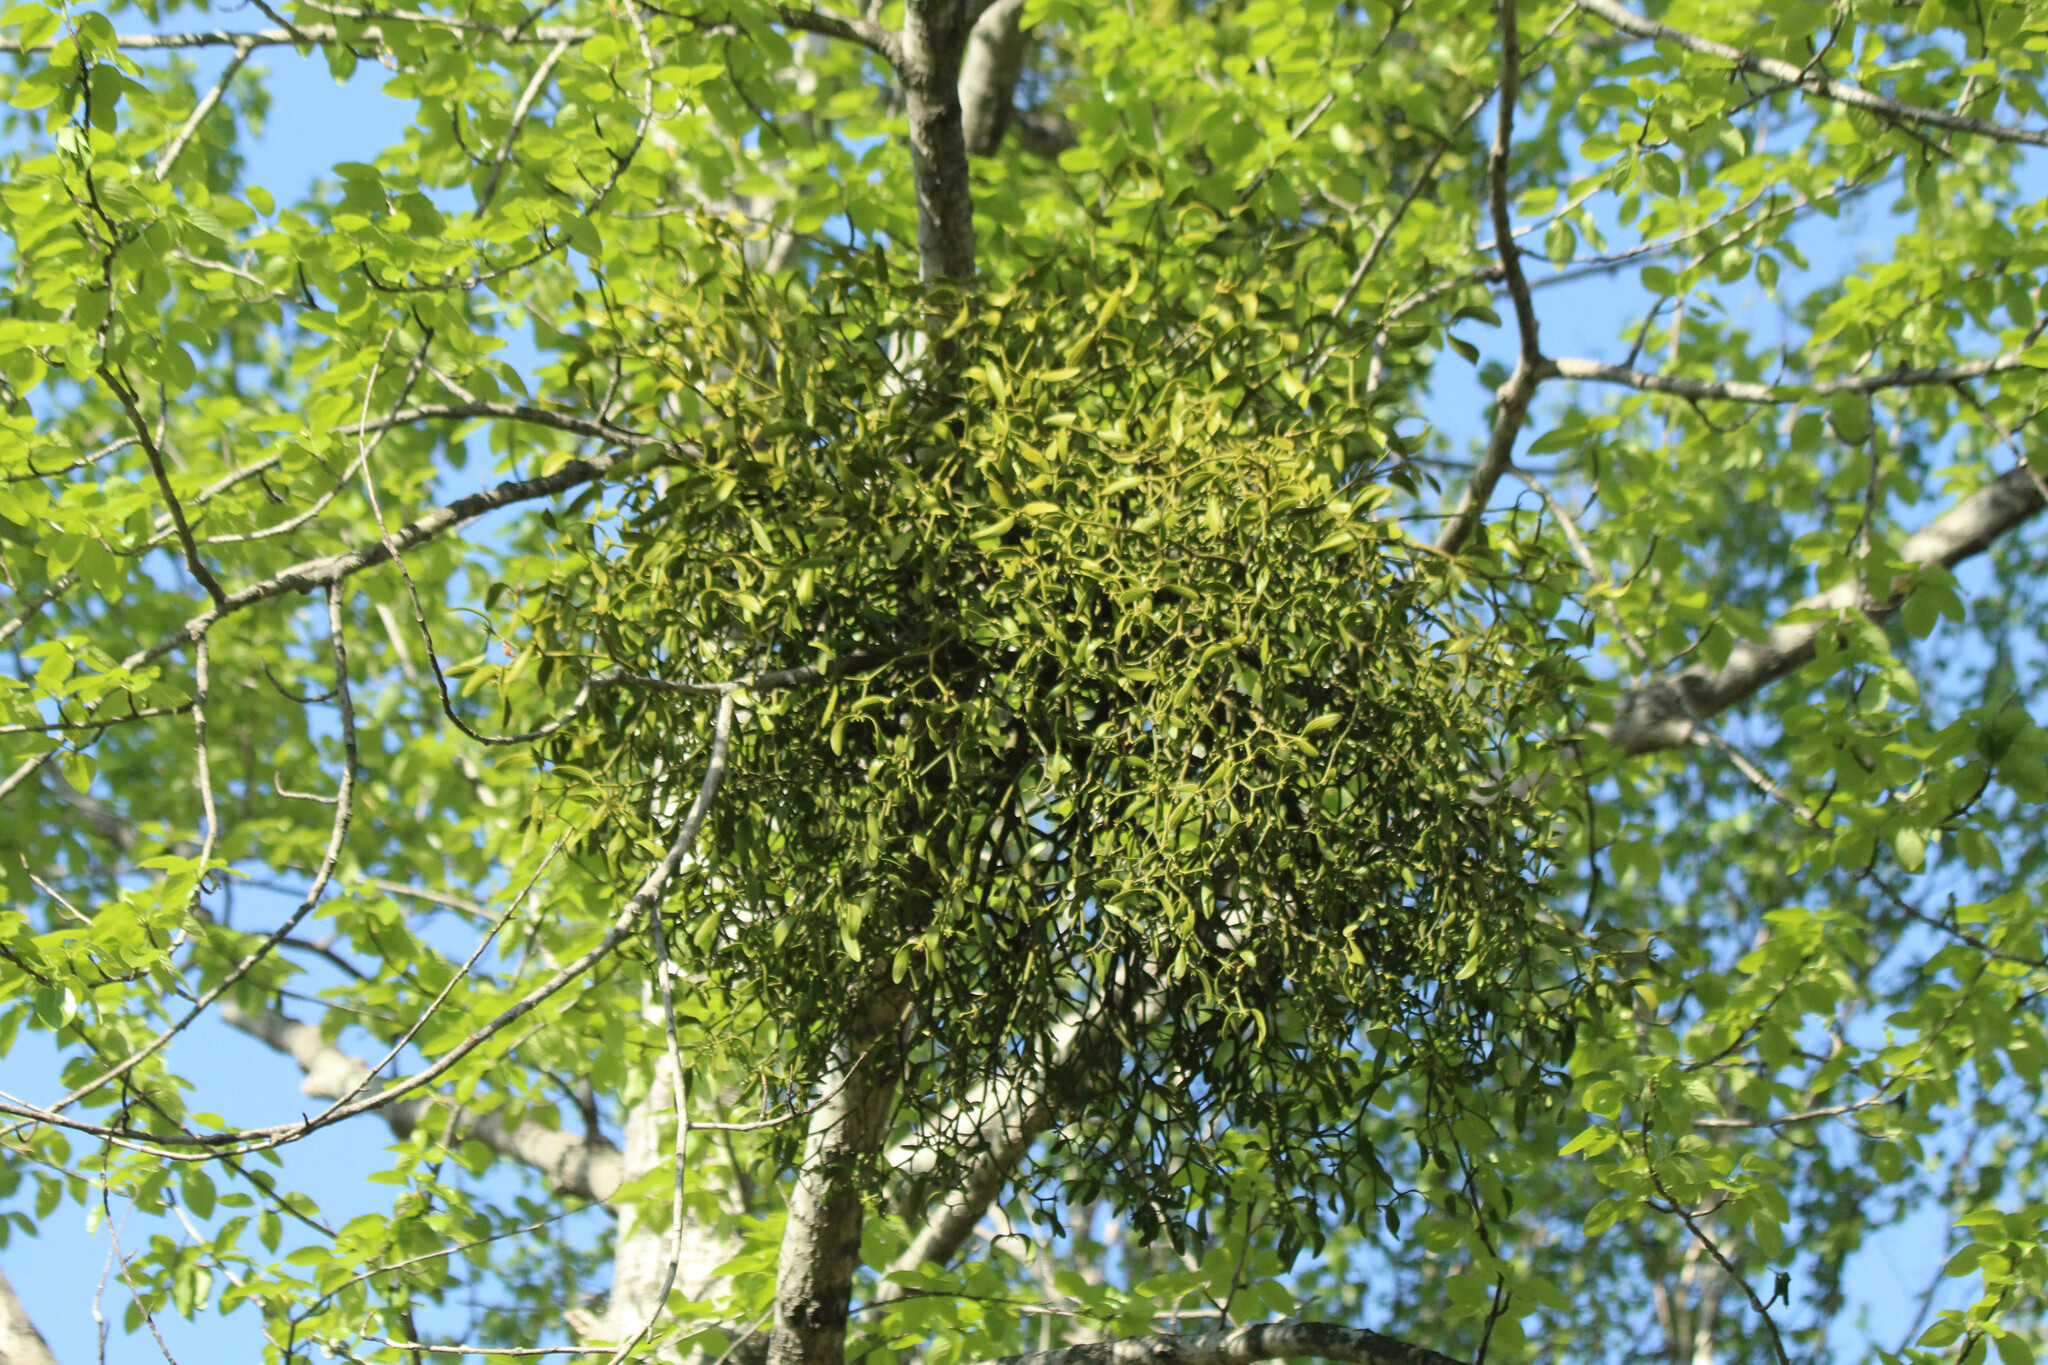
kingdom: Plantae
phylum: Tracheophyta
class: Magnoliopsida
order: Santalales
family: Viscaceae
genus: Viscum
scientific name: Viscum coloratum
